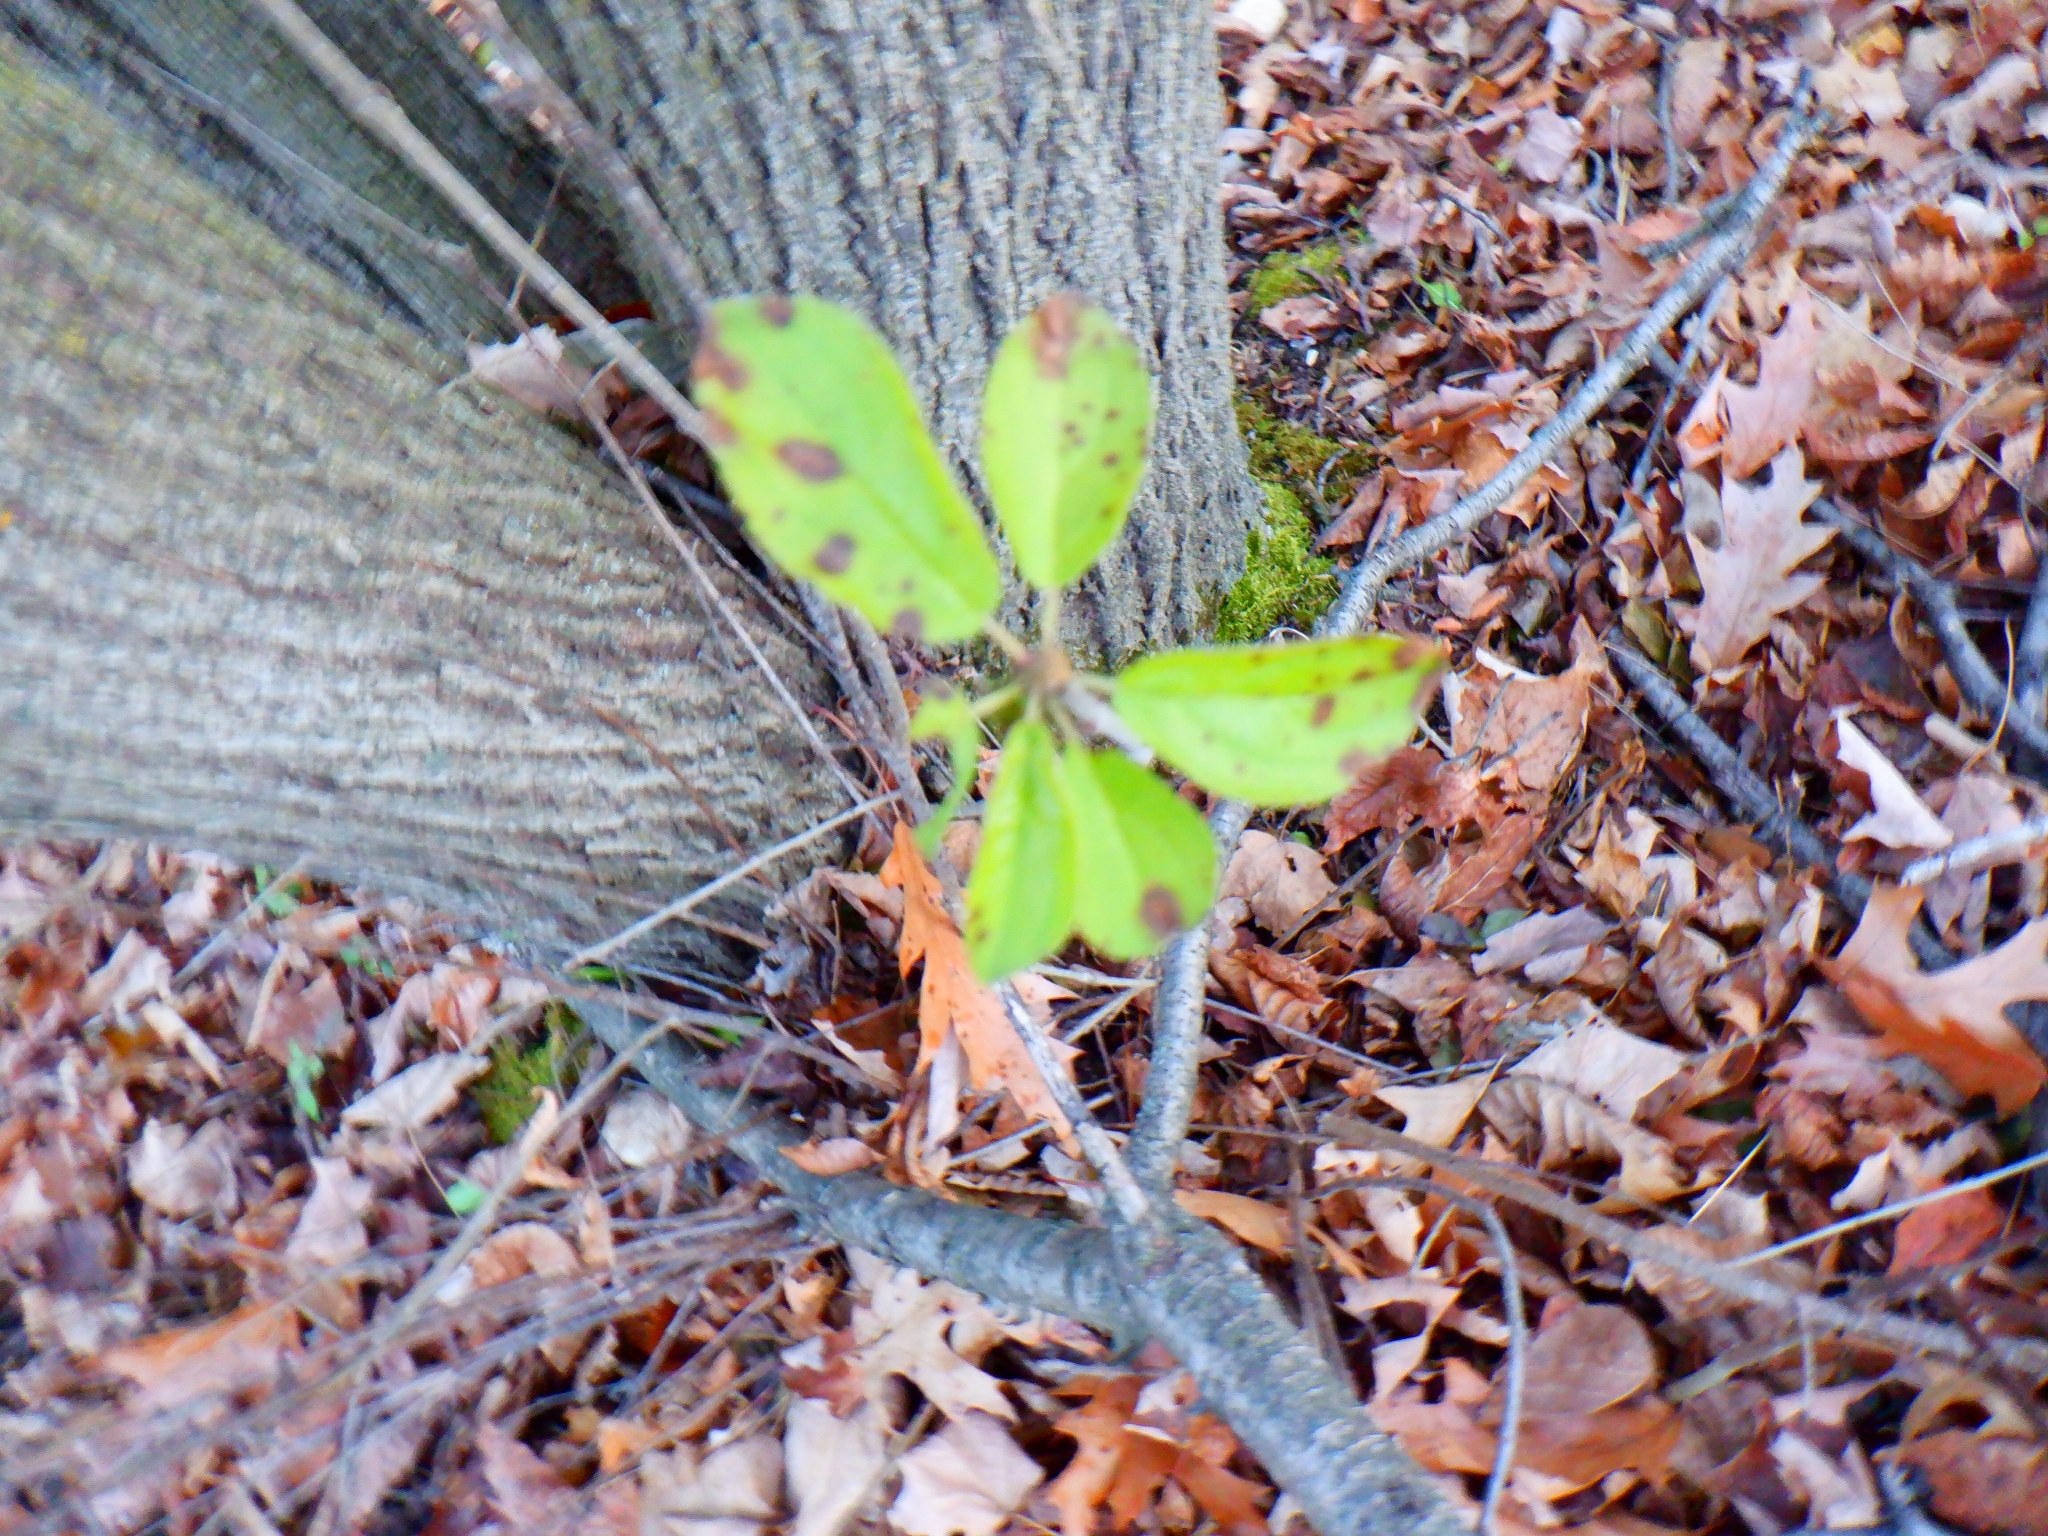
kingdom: Plantae
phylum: Tracheophyta
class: Magnoliopsida
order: Rosales
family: Rhamnaceae
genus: Rhamnus
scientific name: Rhamnus cathartica
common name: Common buckthorn
